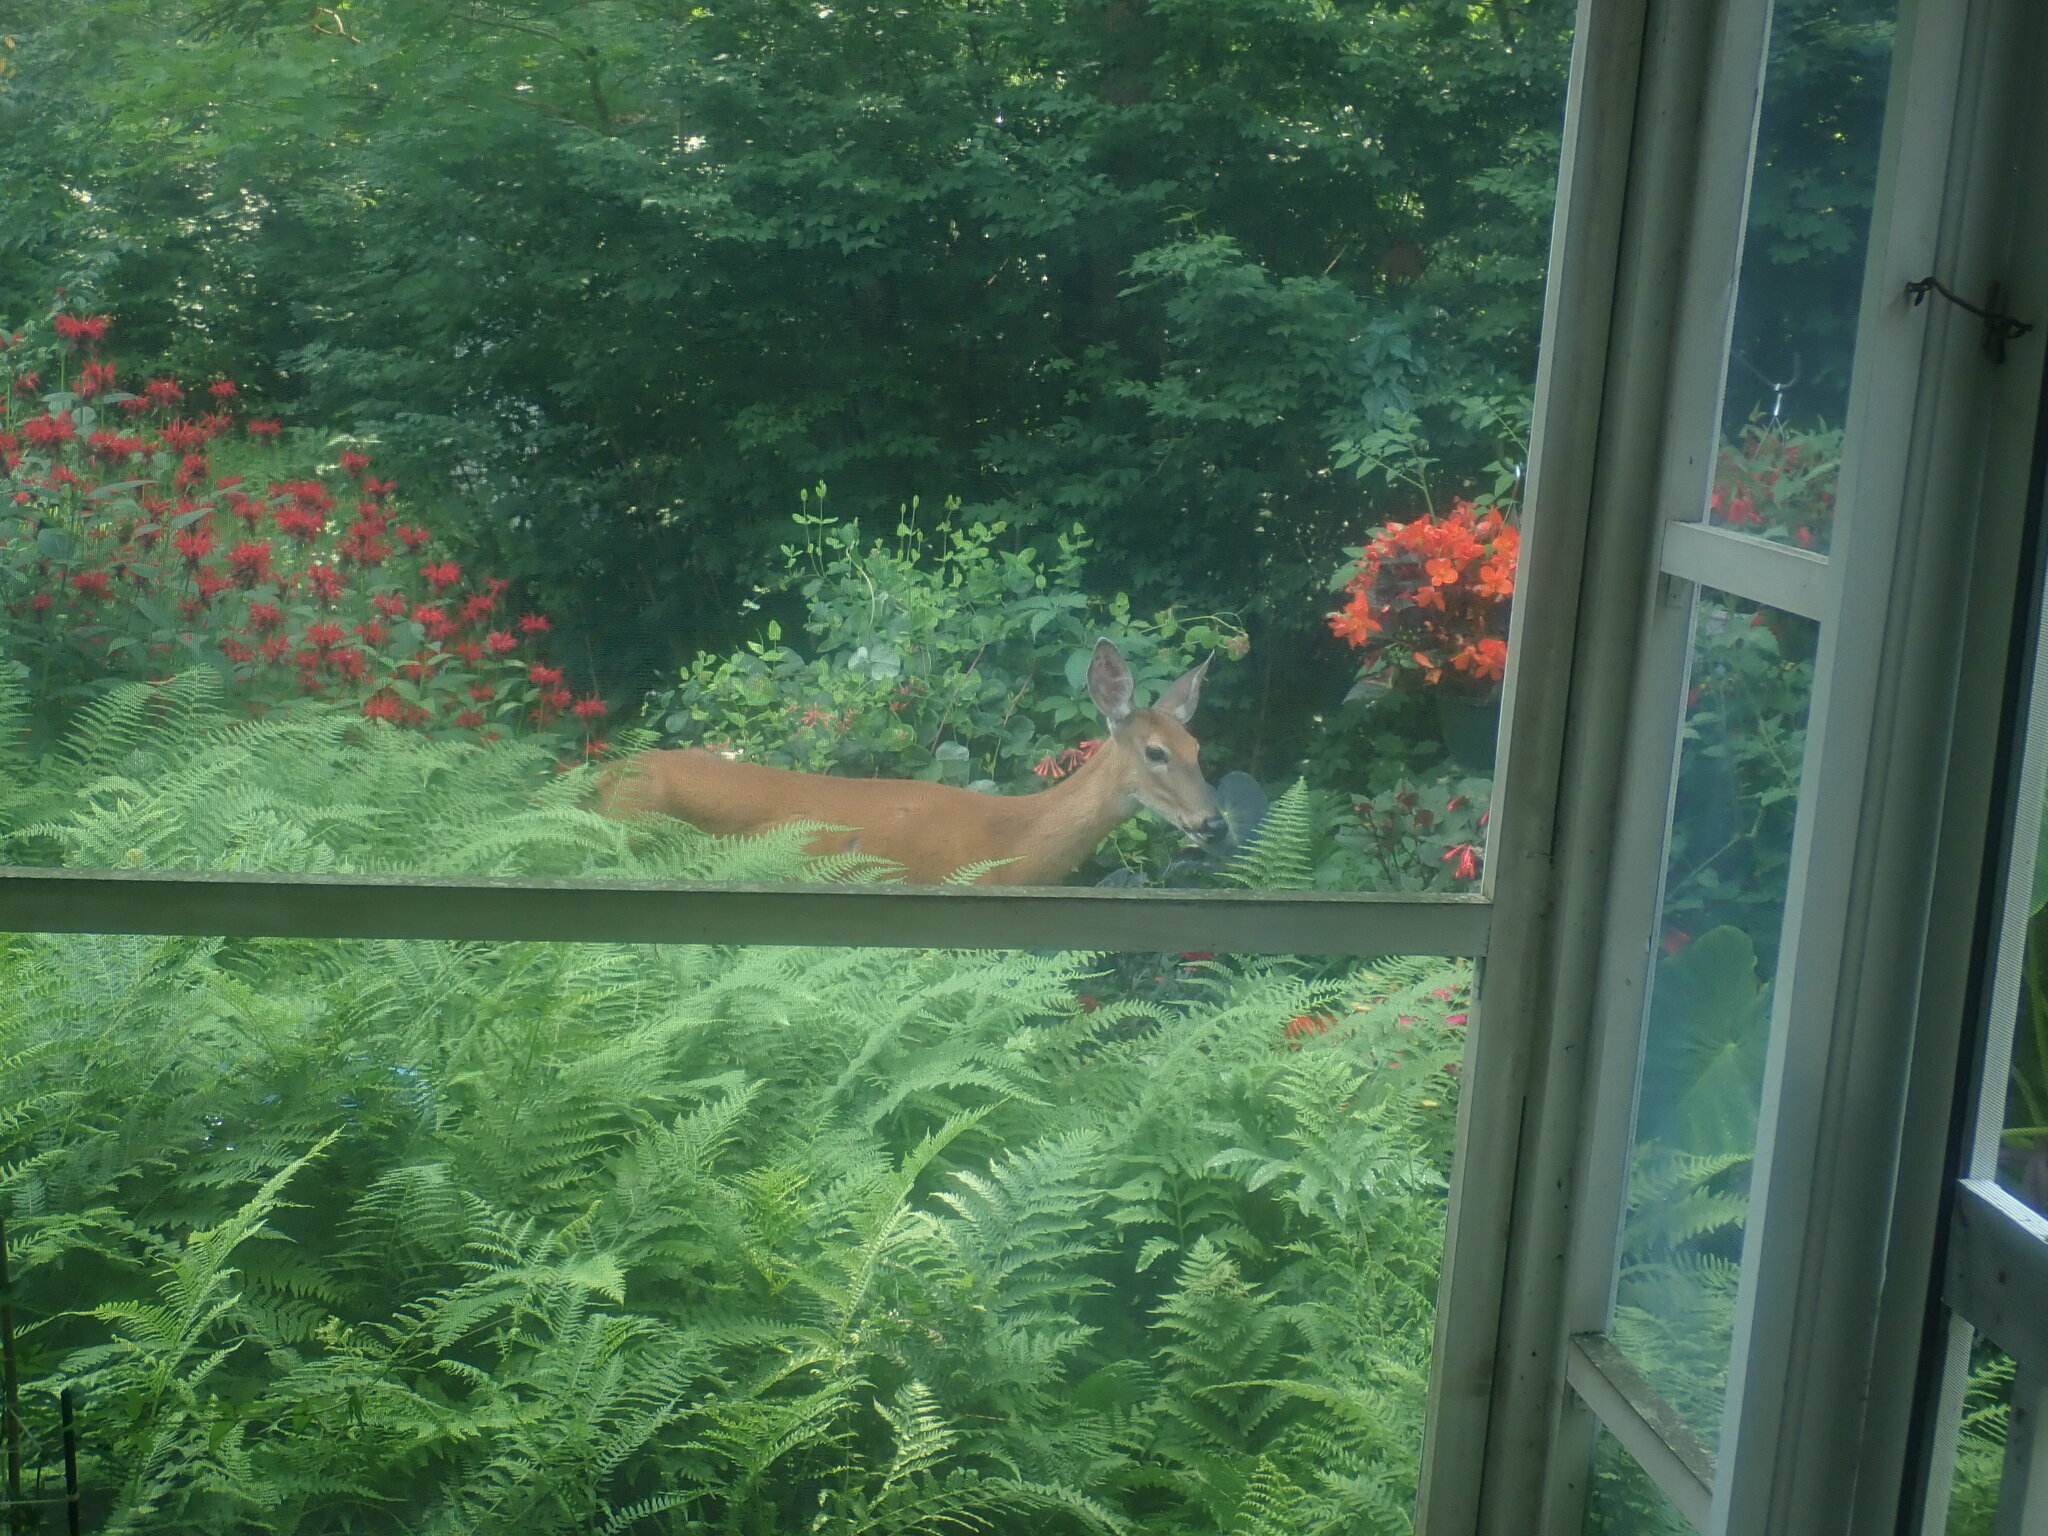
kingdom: Animalia
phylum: Chordata
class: Mammalia
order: Artiodactyla
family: Cervidae
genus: Odocoileus
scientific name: Odocoileus virginianus
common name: White-tailed deer
